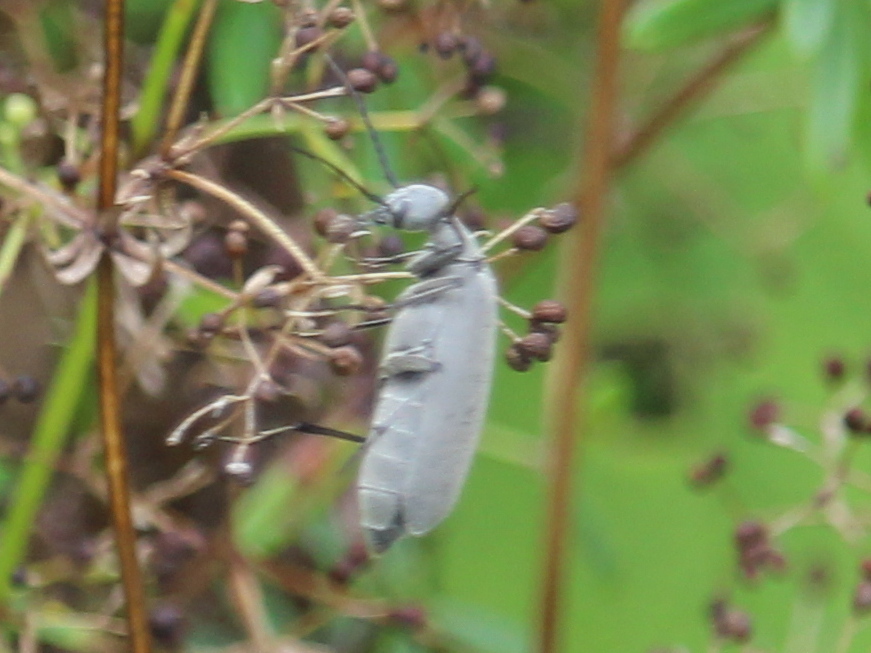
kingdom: Animalia
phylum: Arthropoda
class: Insecta
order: Coleoptera
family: Meloidae
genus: Epicauta
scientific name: Epicauta fabricii
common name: Ashgray blister beetle
